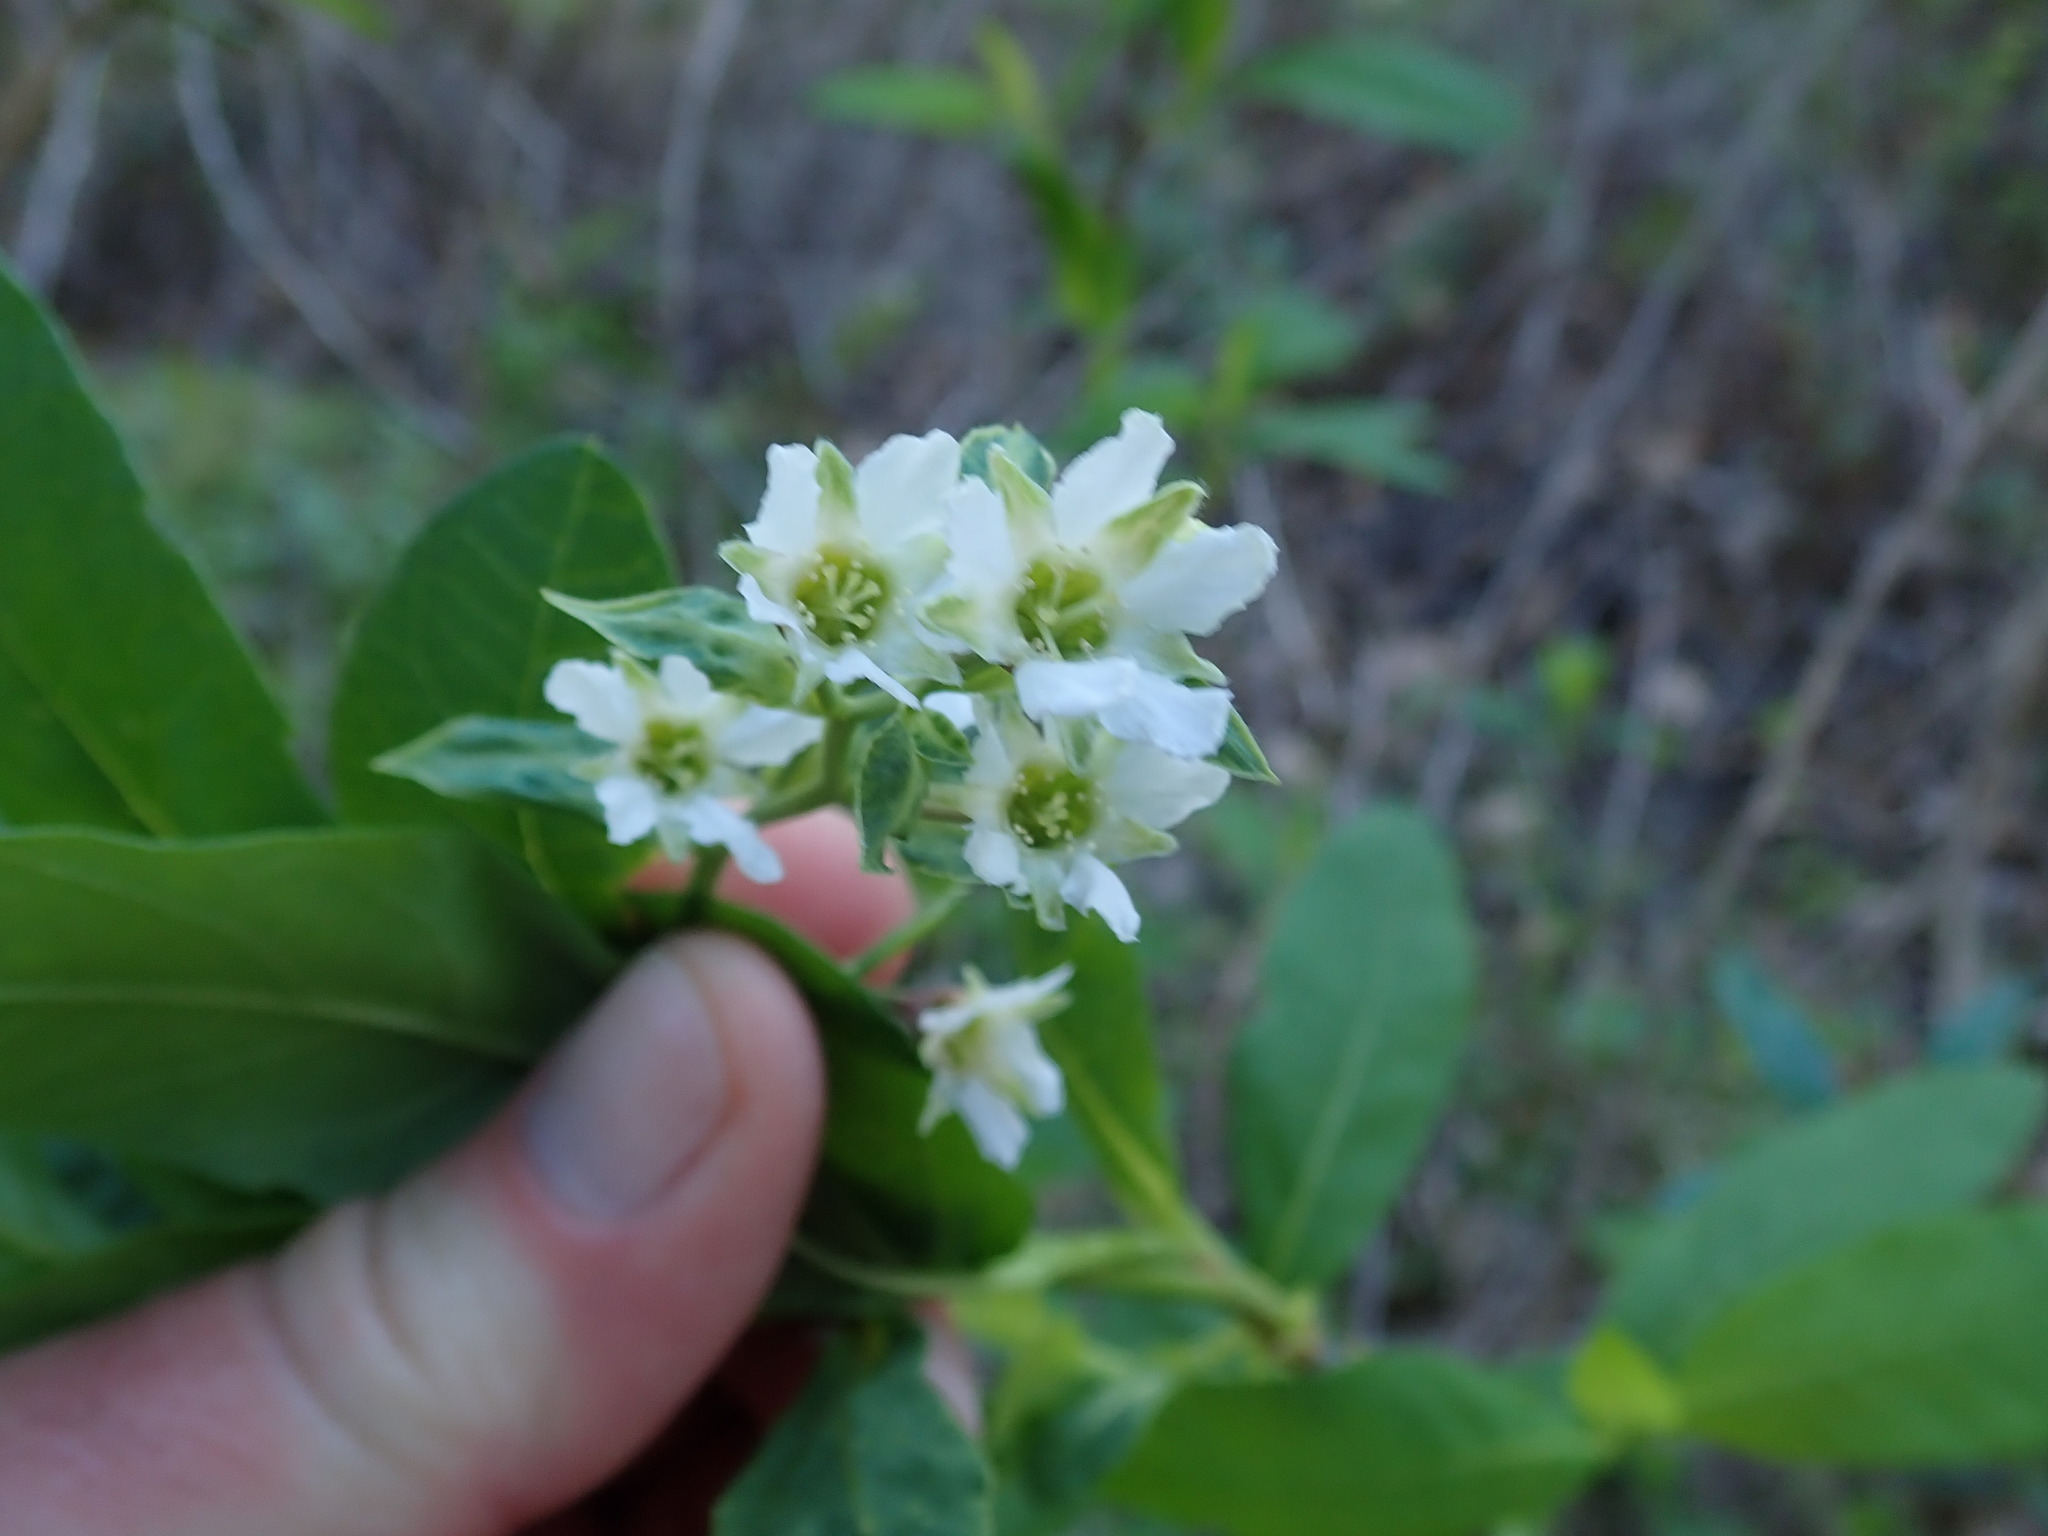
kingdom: Plantae
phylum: Tracheophyta
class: Magnoliopsida
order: Rosales
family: Rosaceae
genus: Oemleria
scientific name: Oemleria cerasiformis
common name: Osoberry
